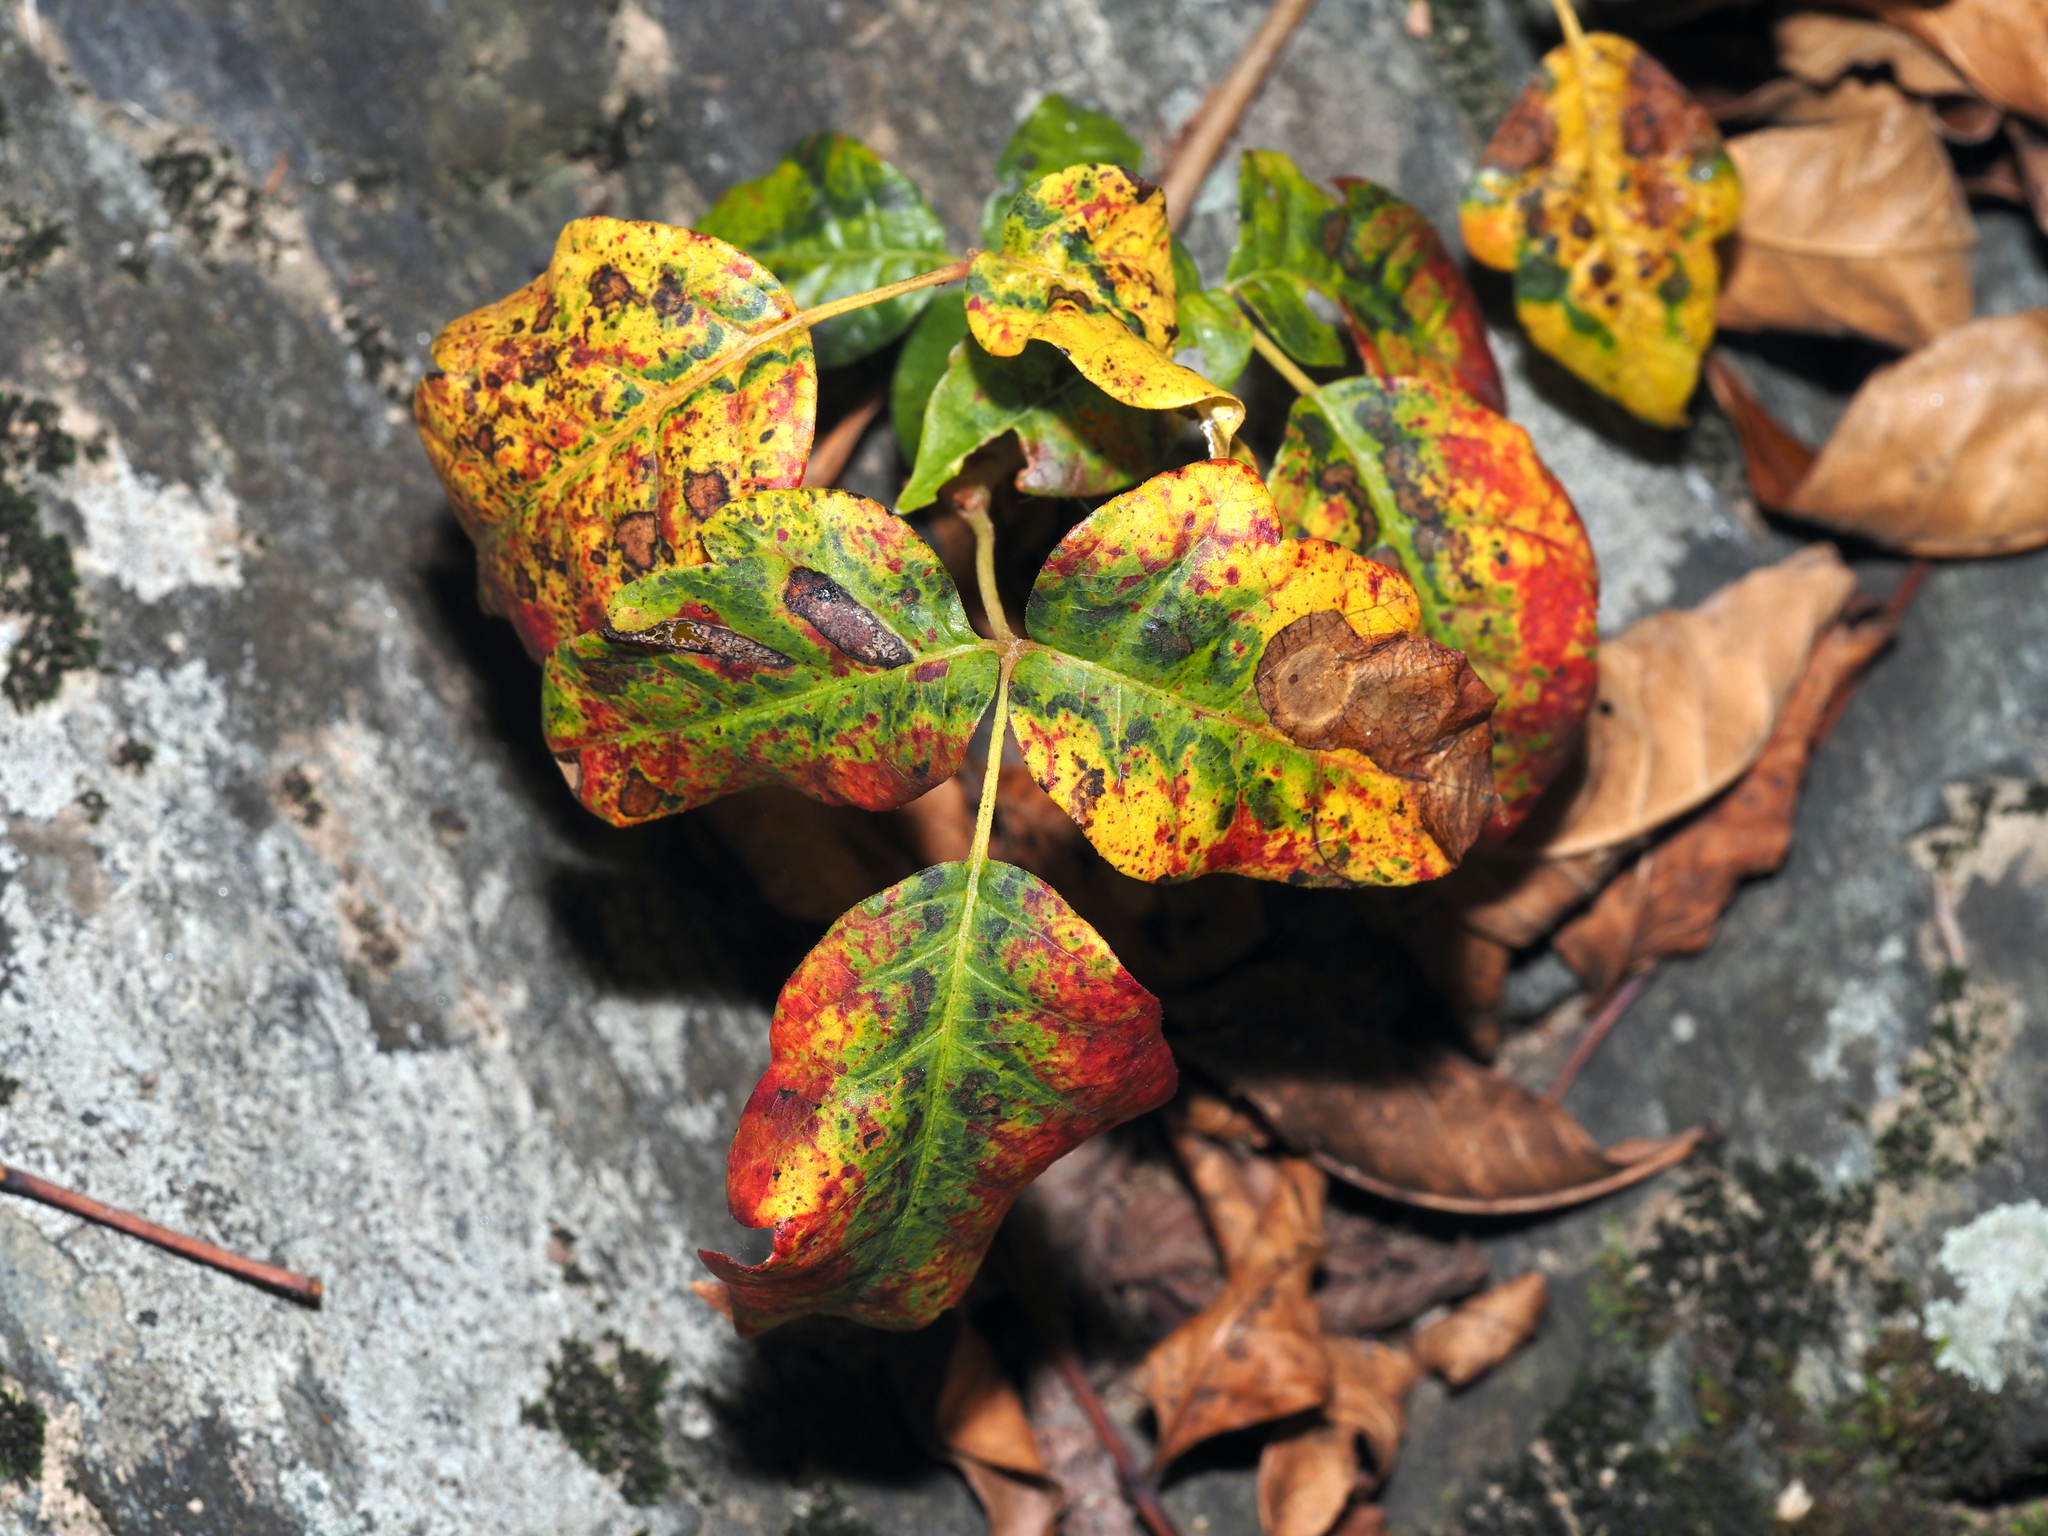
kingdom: Plantae
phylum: Tracheophyta
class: Magnoliopsida
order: Sapindales
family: Anacardiaceae
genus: Toxicodendron
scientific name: Toxicodendron radicans
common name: Poison ivy
